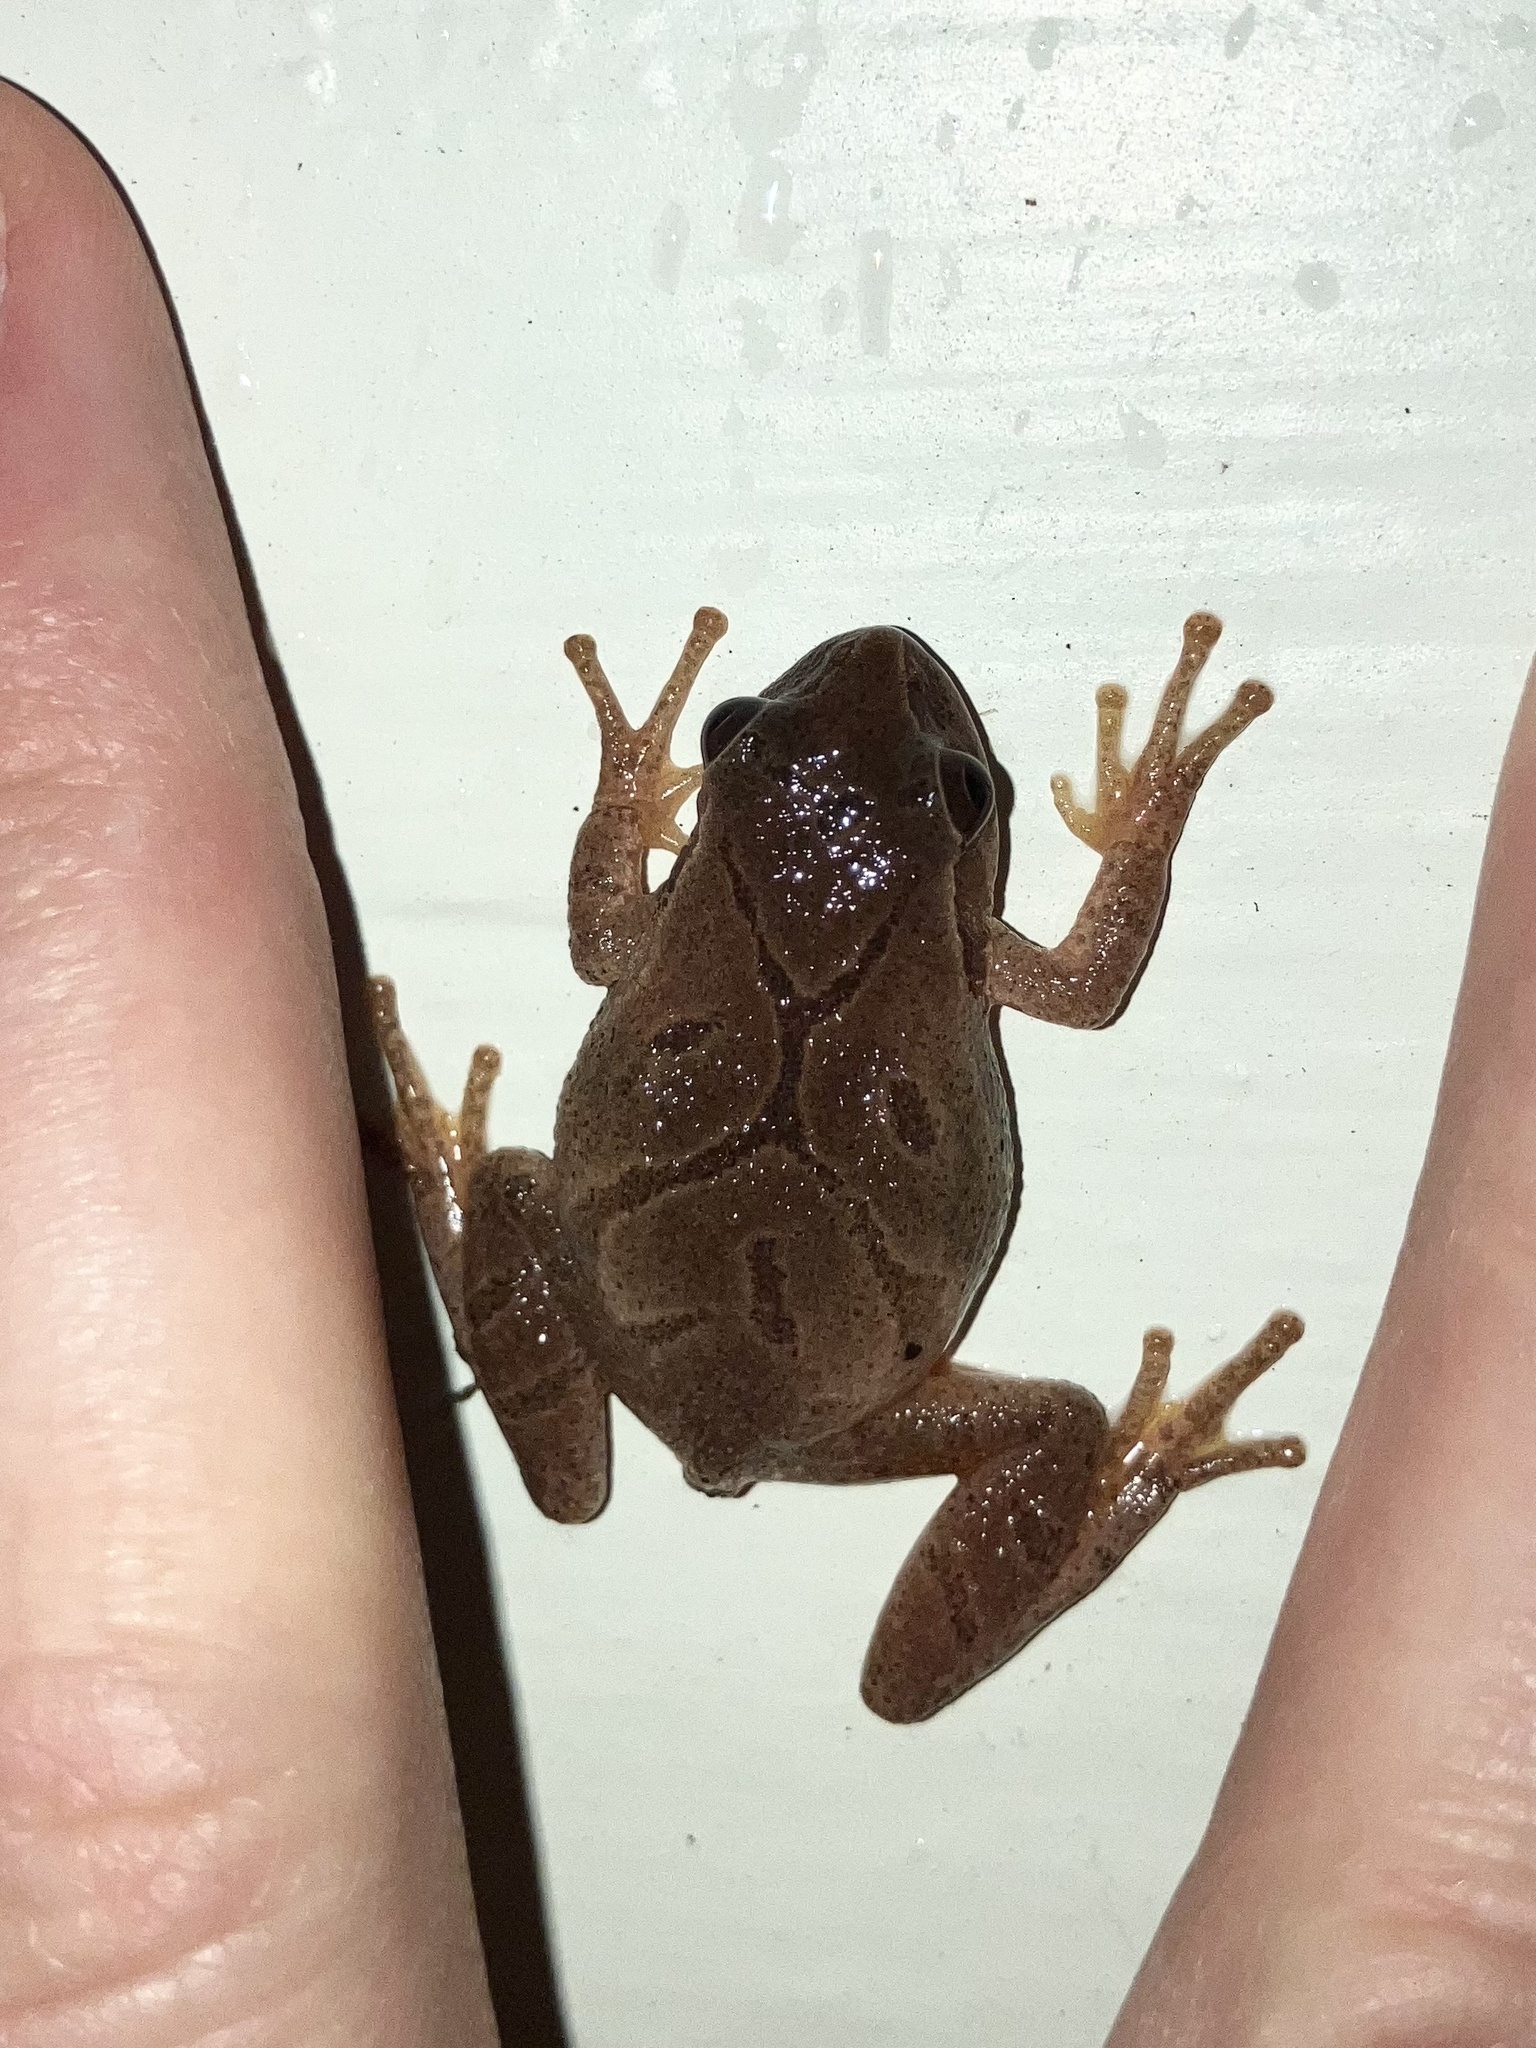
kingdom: Animalia
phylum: Chordata
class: Amphibia
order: Anura
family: Hylidae
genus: Pseudacris
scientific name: Pseudacris crucifer
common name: Spring peeper
